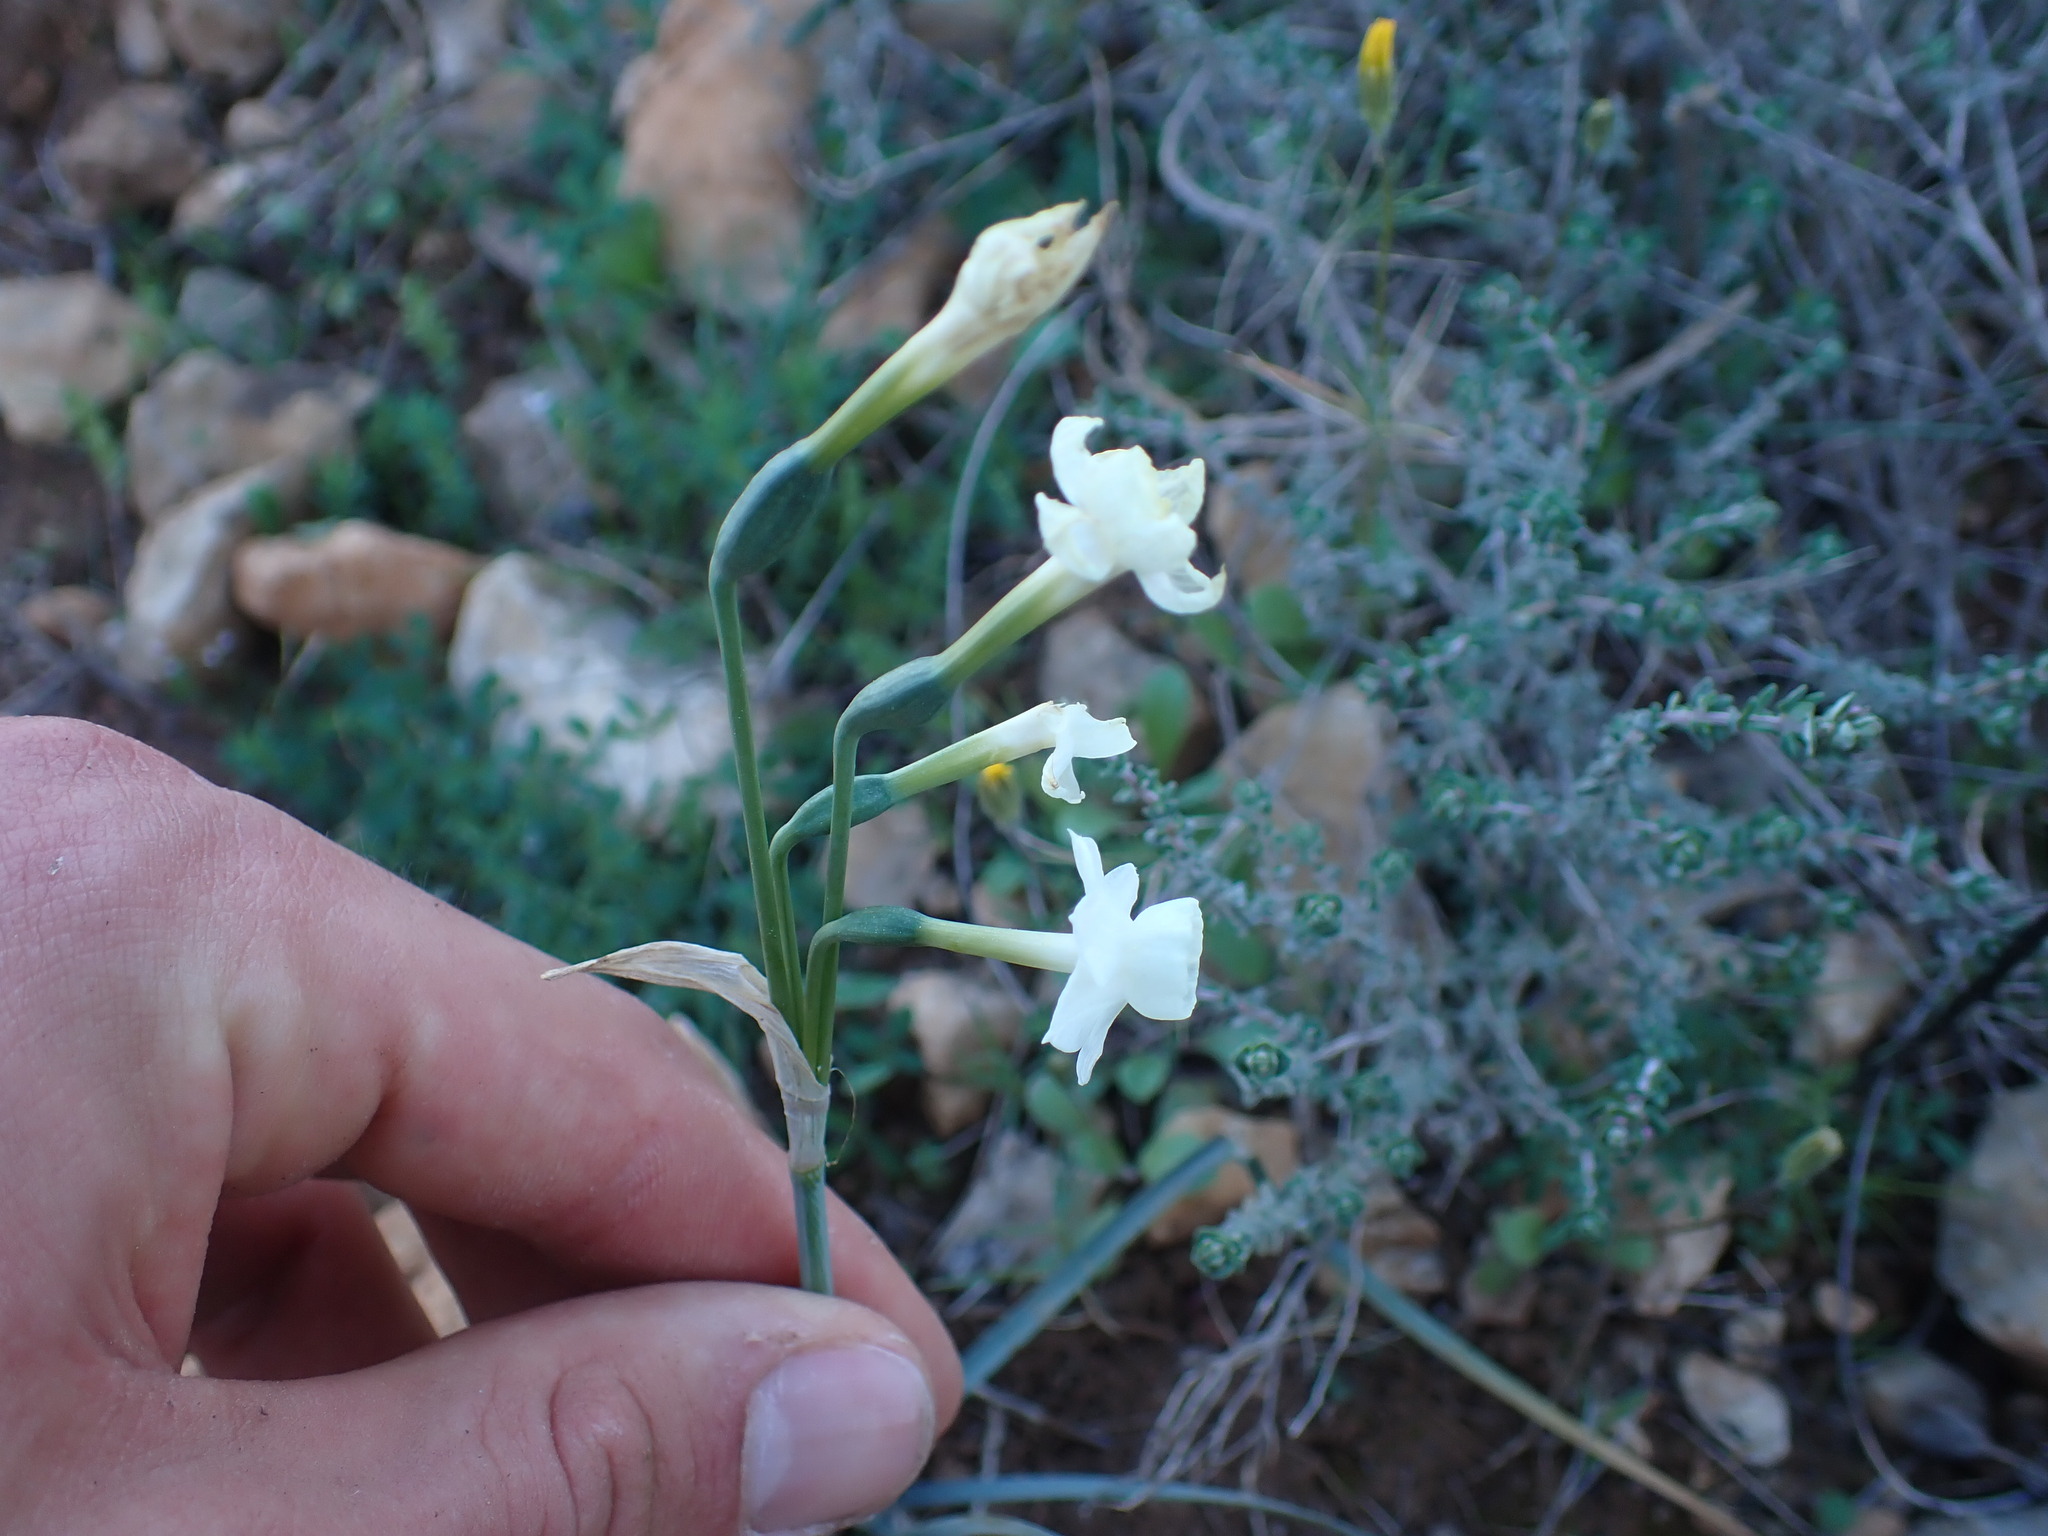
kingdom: Plantae
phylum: Tracheophyta
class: Liliopsida
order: Asparagales
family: Amaryllidaceae
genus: Narcissus
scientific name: Narcissus dubius
